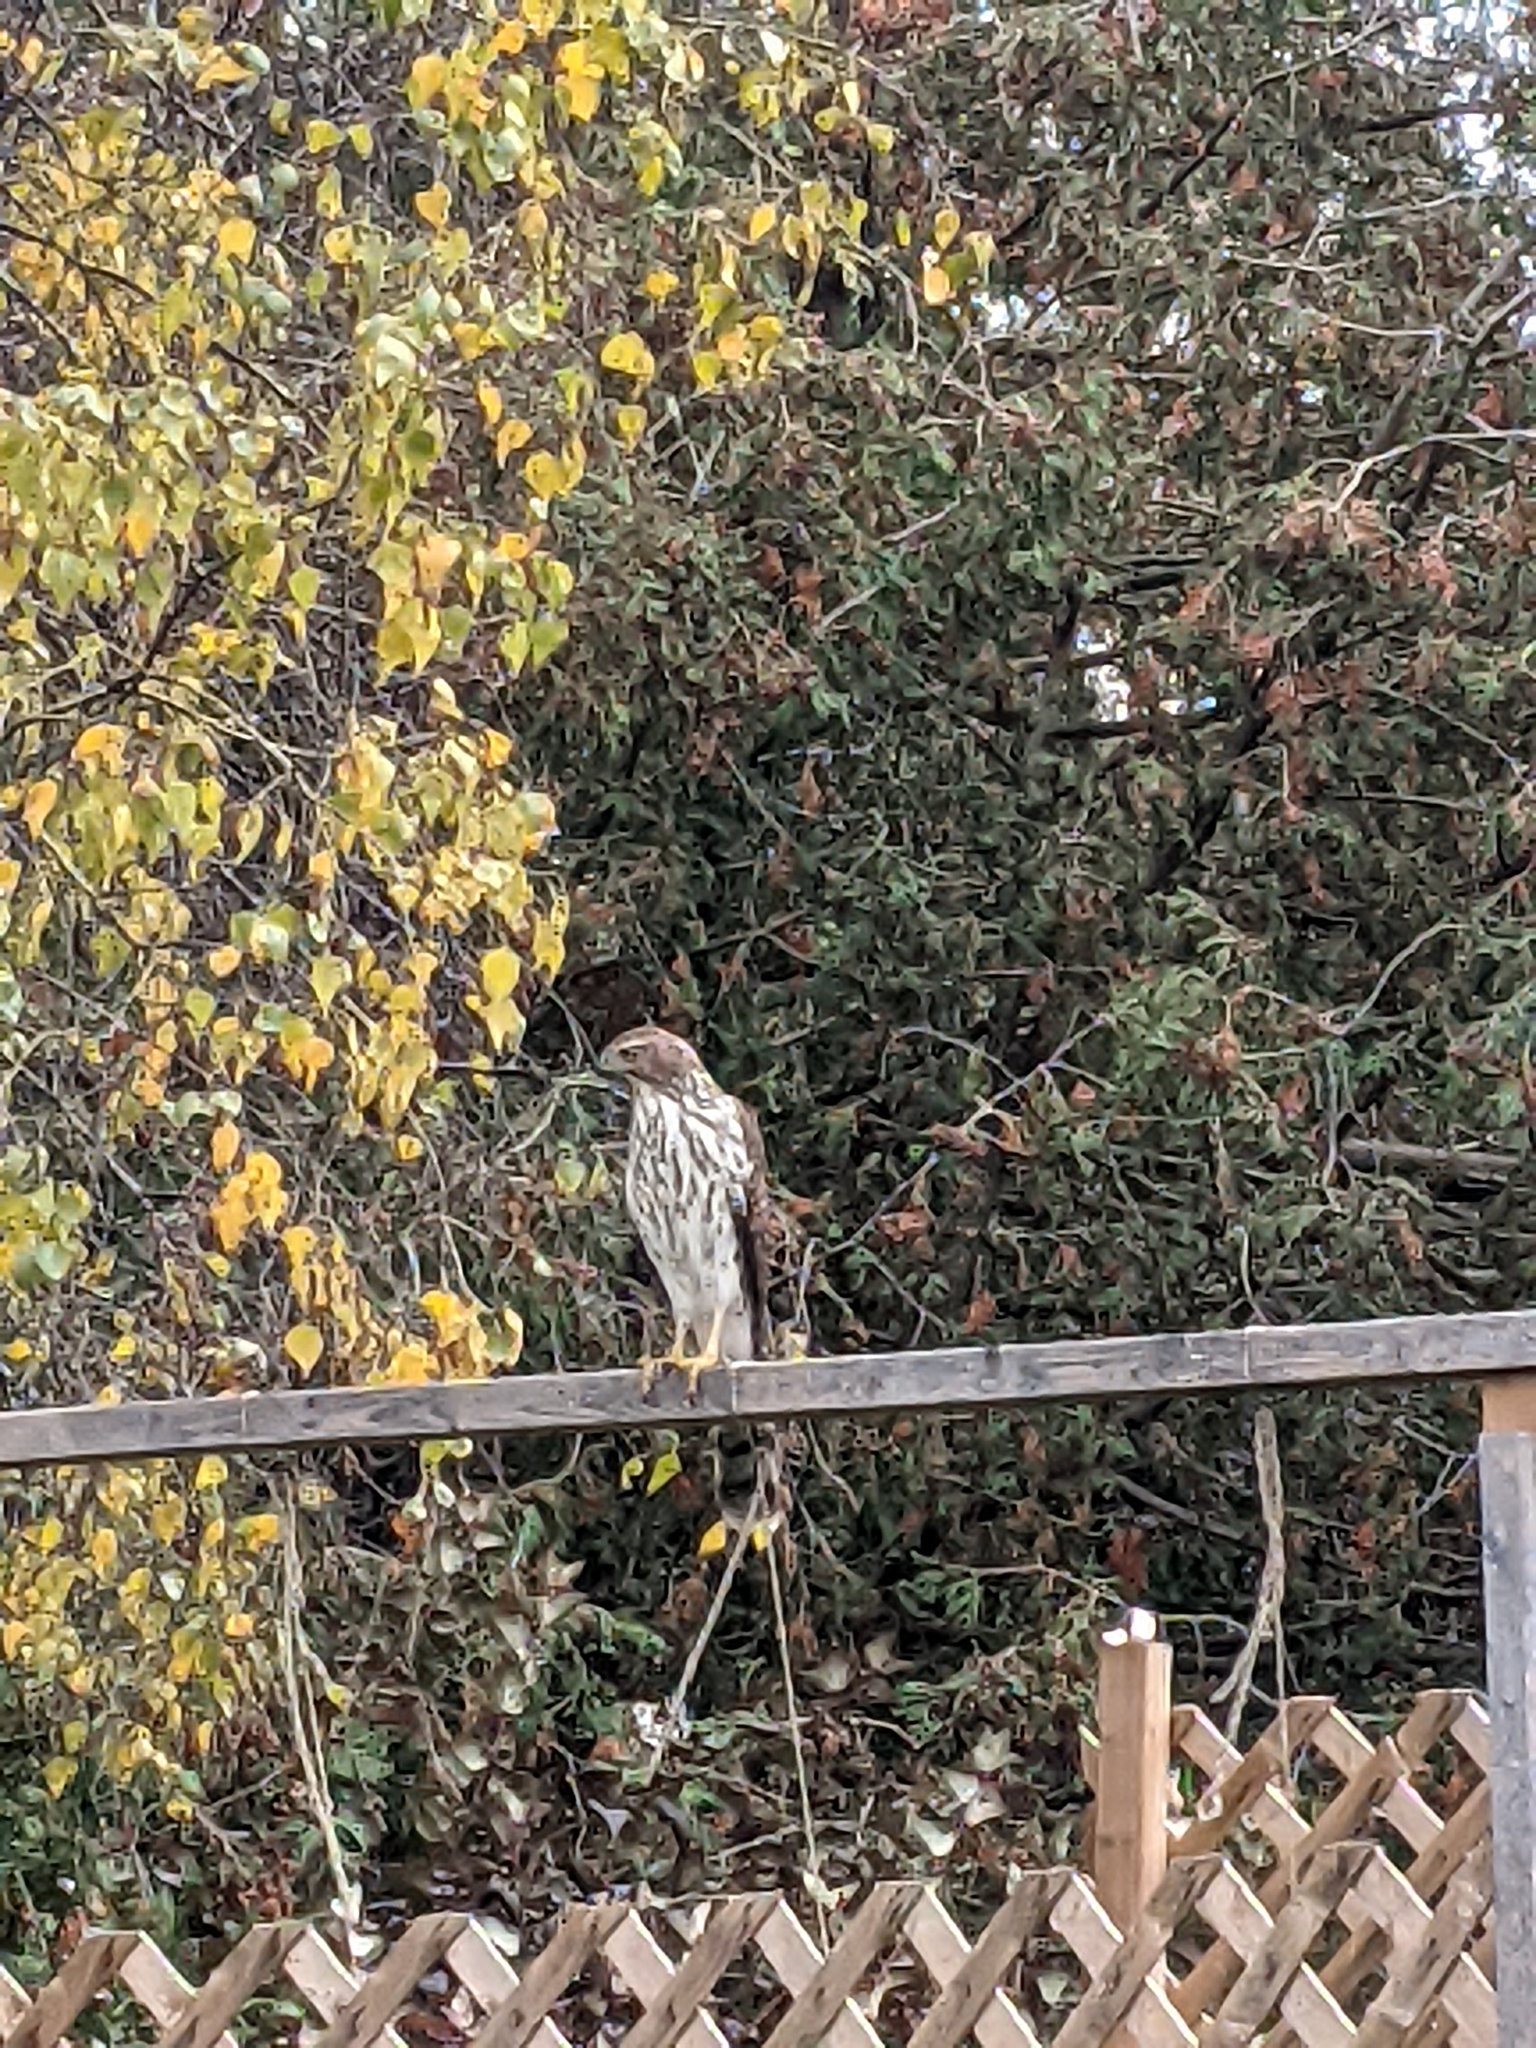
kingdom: Animalia
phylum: Chordata
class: Aves
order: Accipitriformes
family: Accipitridae
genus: Accipiter
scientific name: Accipiter cooperii
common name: Cooper's hawk
